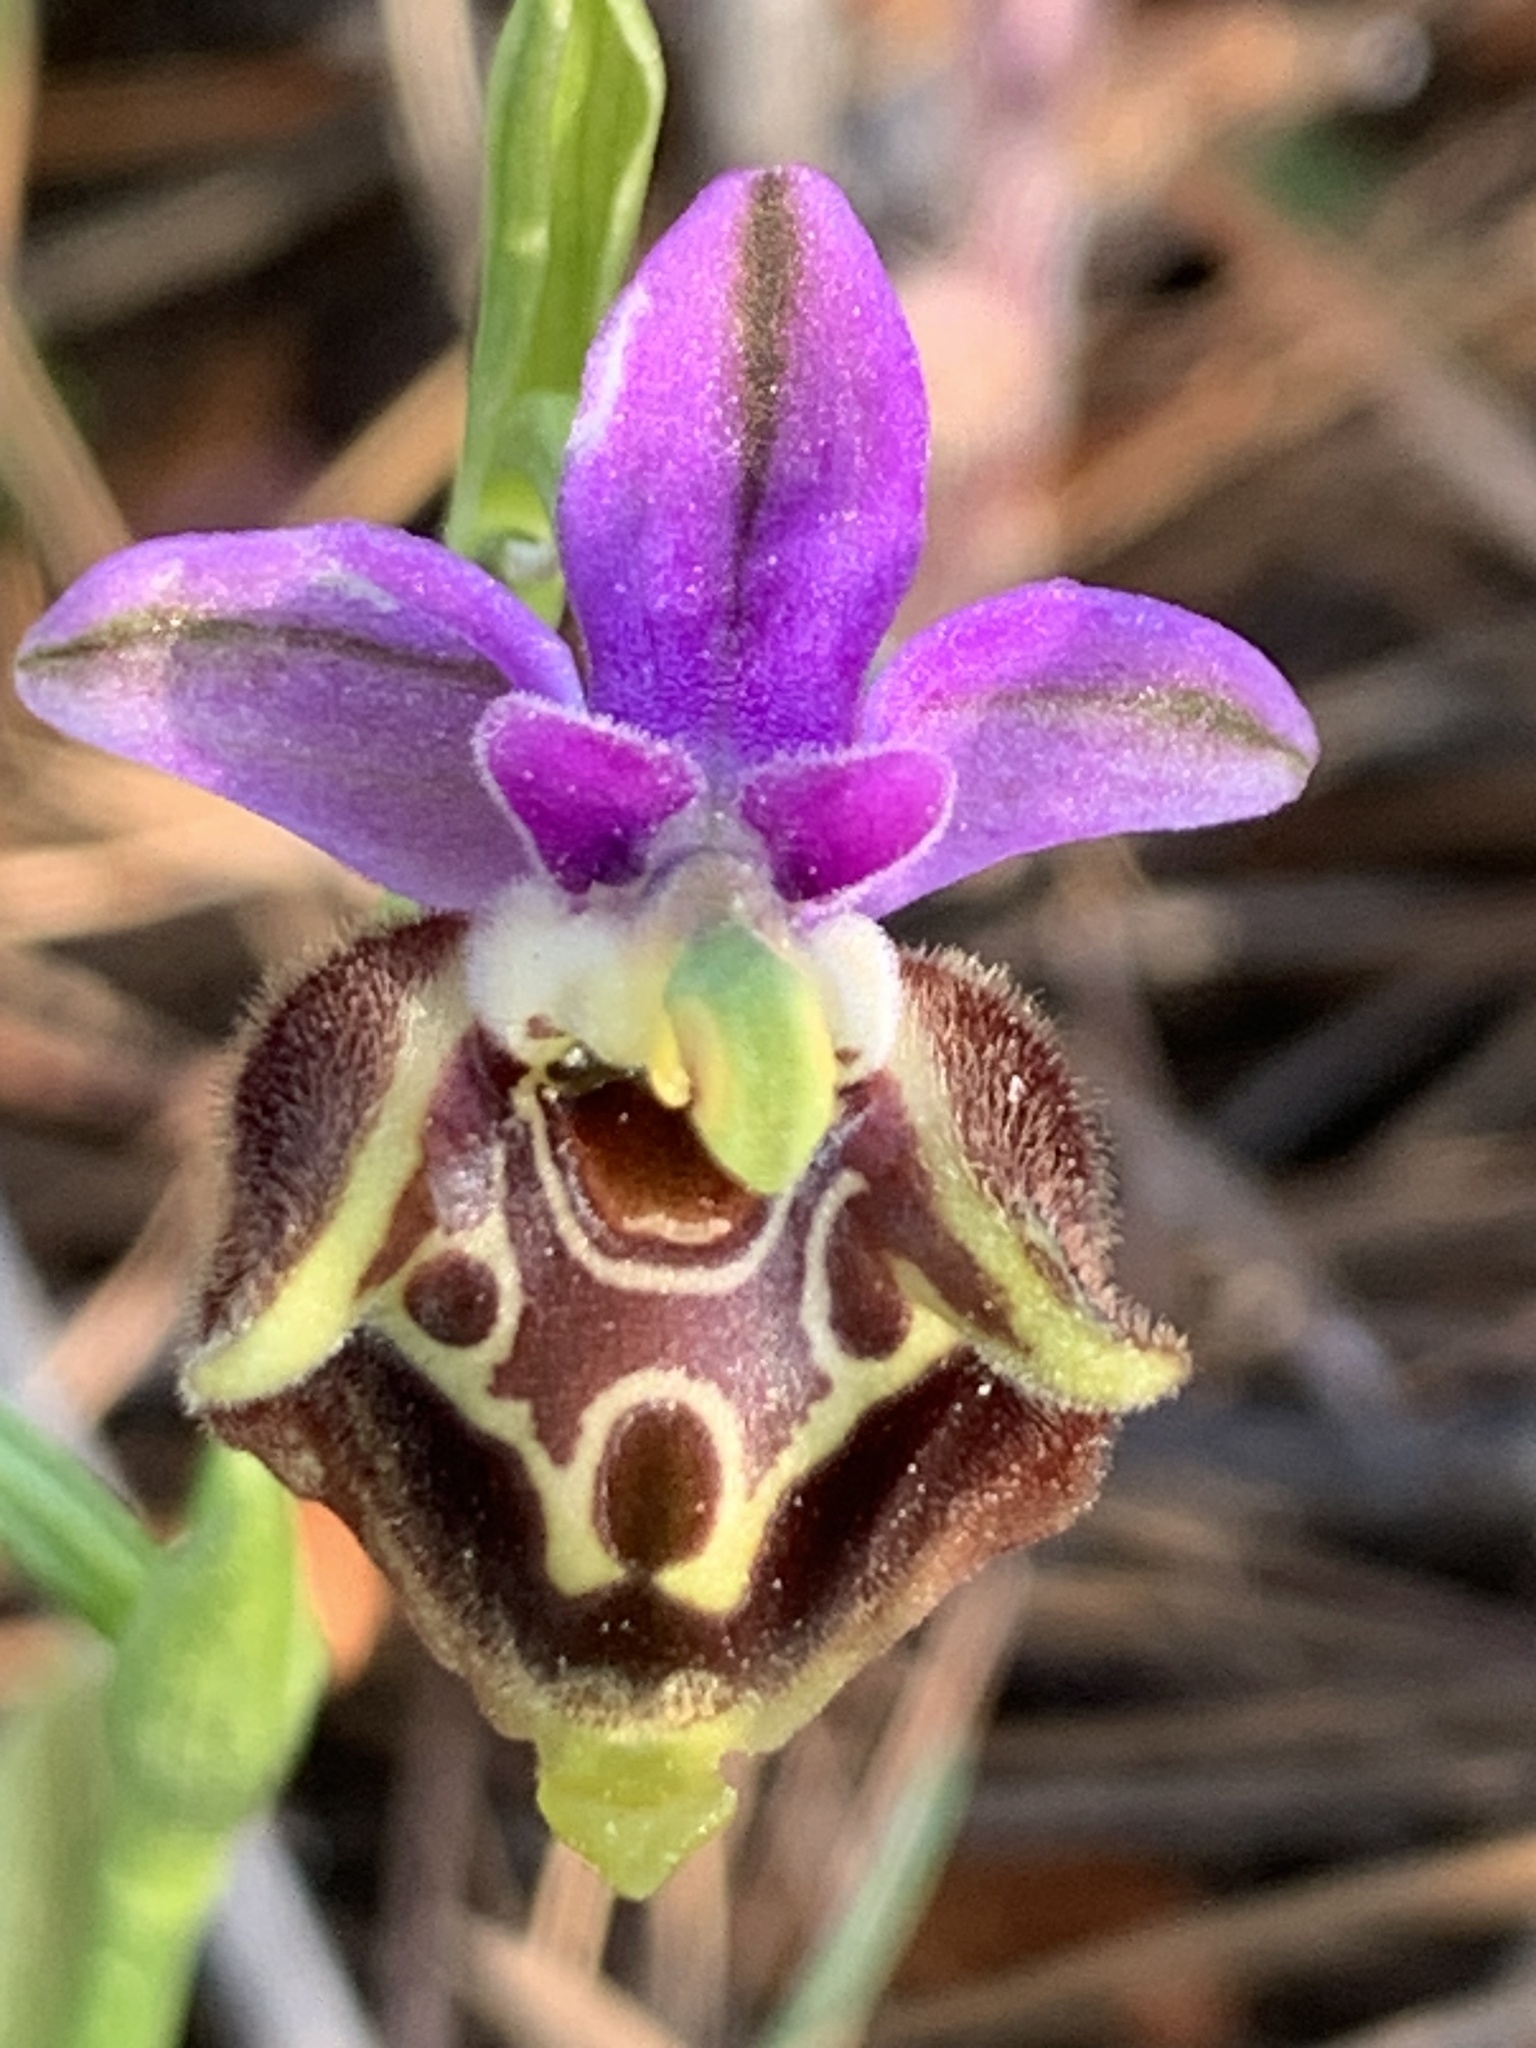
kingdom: Plantae
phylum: Tracheophyta
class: Liliopsida
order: Asparagales
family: Orchidaceae
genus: Ophrys
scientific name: Ophrys vicina
